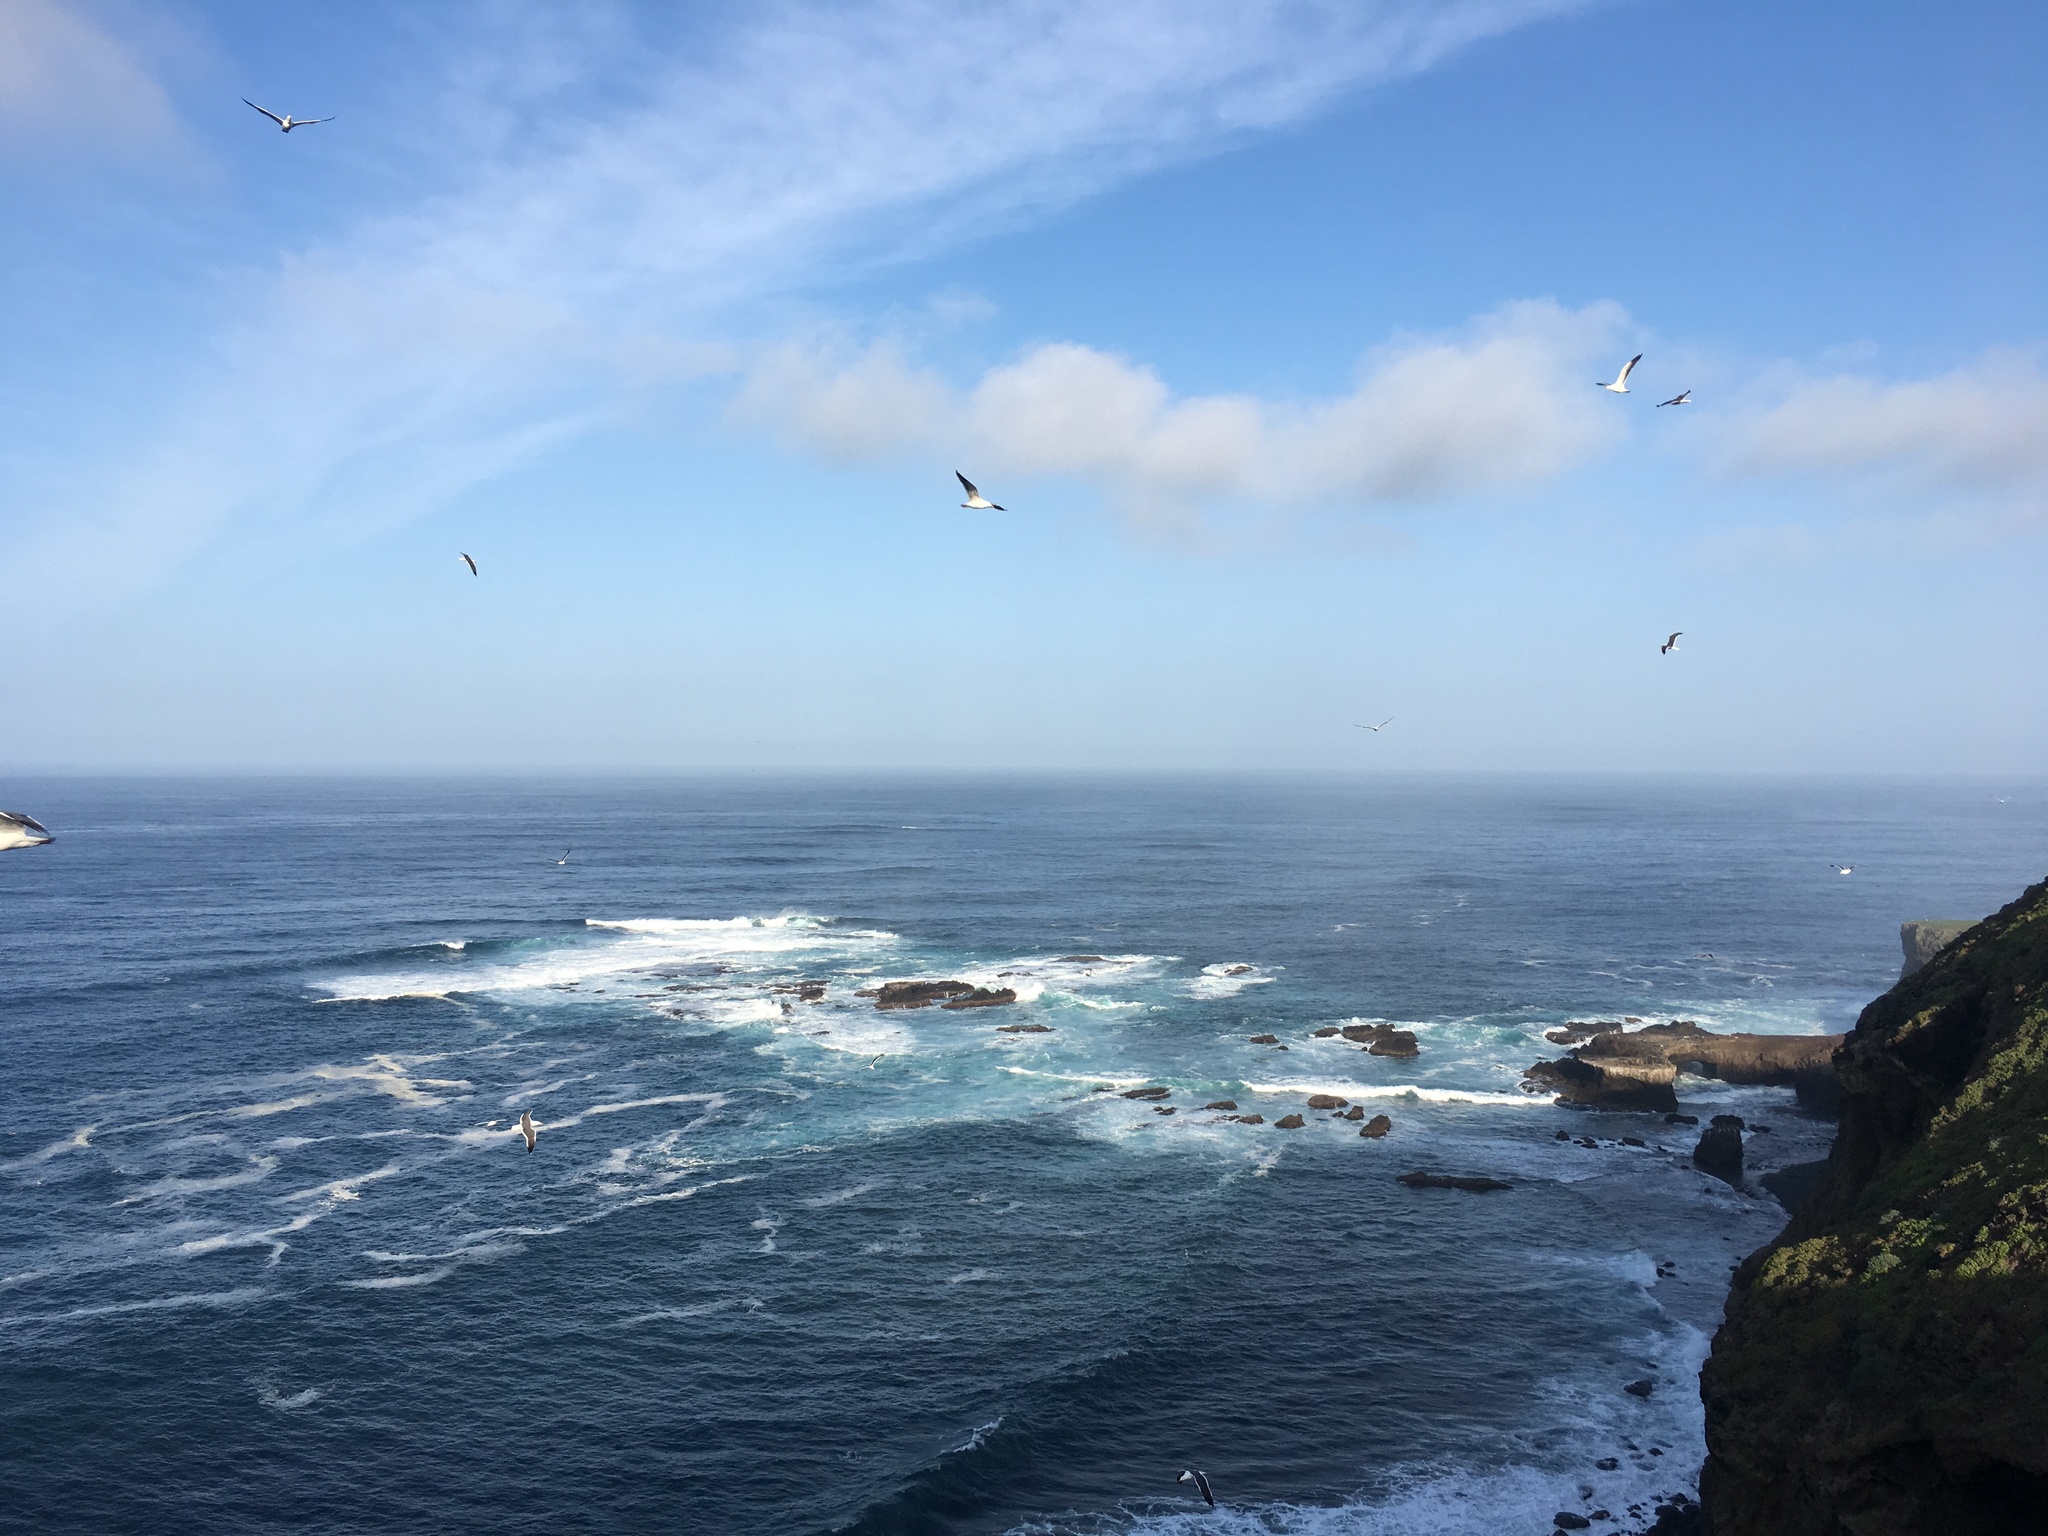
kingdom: Animalia
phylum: Chordata
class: Aves
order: Charadriiformes
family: Laridae
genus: Larus
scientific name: Larus occidentalis
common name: Western gull
